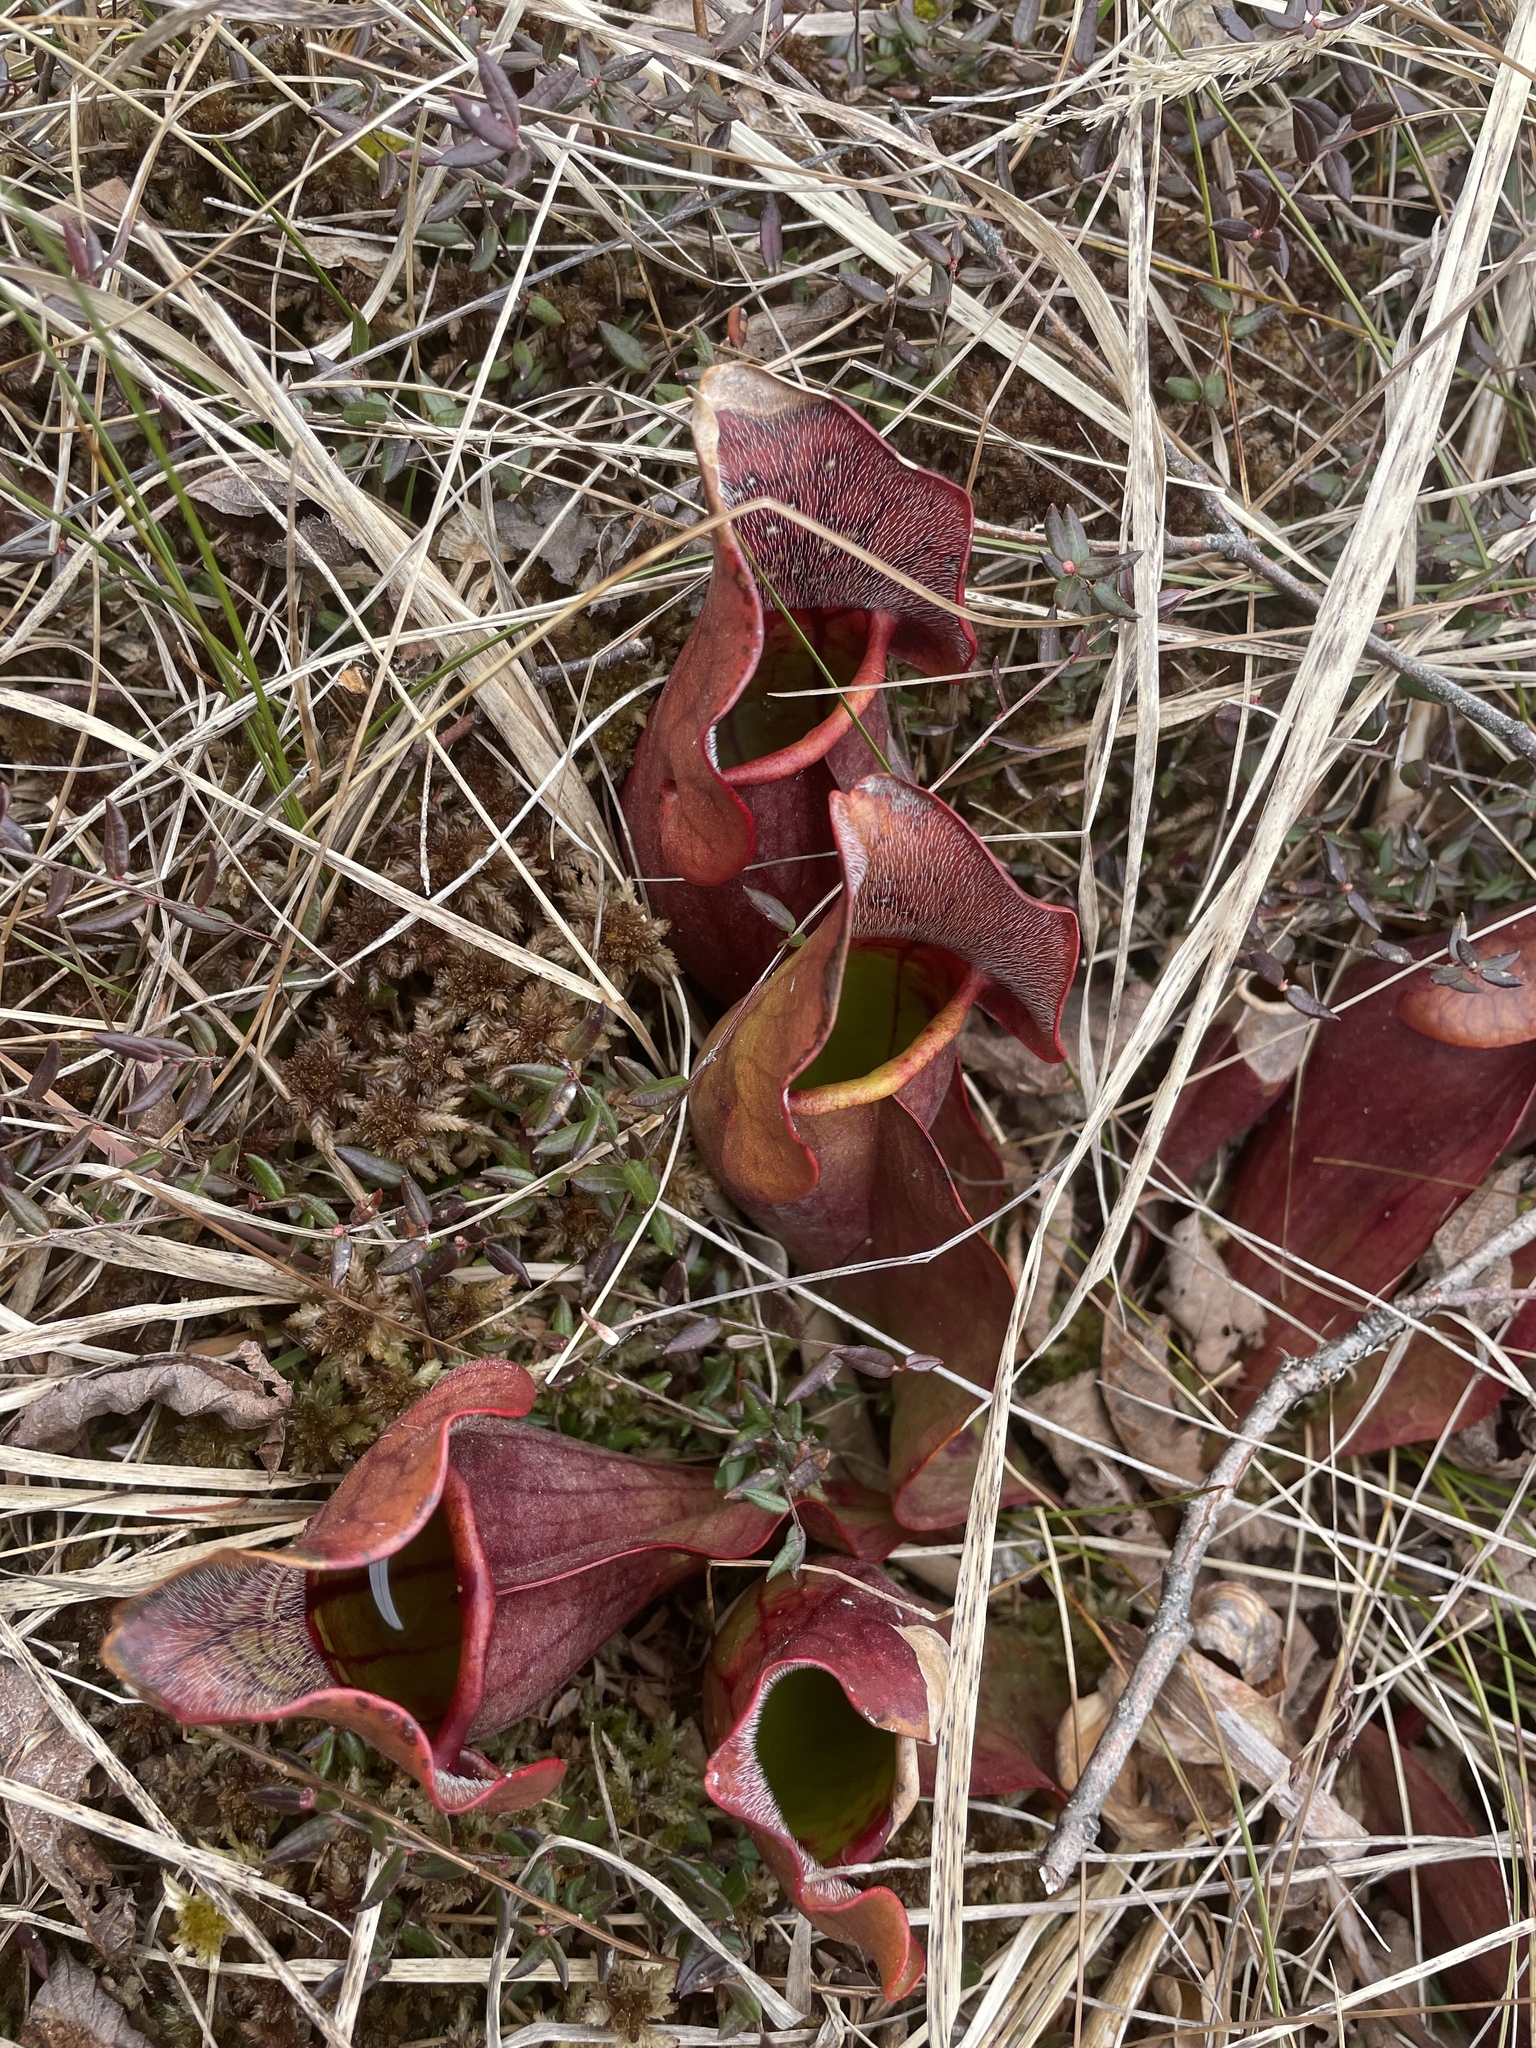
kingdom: Plantae
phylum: Tracheophyta
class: Magnoliopsida
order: Ericales
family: Sarraceniaceae
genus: Sarracenia
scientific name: Sarracenia purpurea
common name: Pitcherplant
